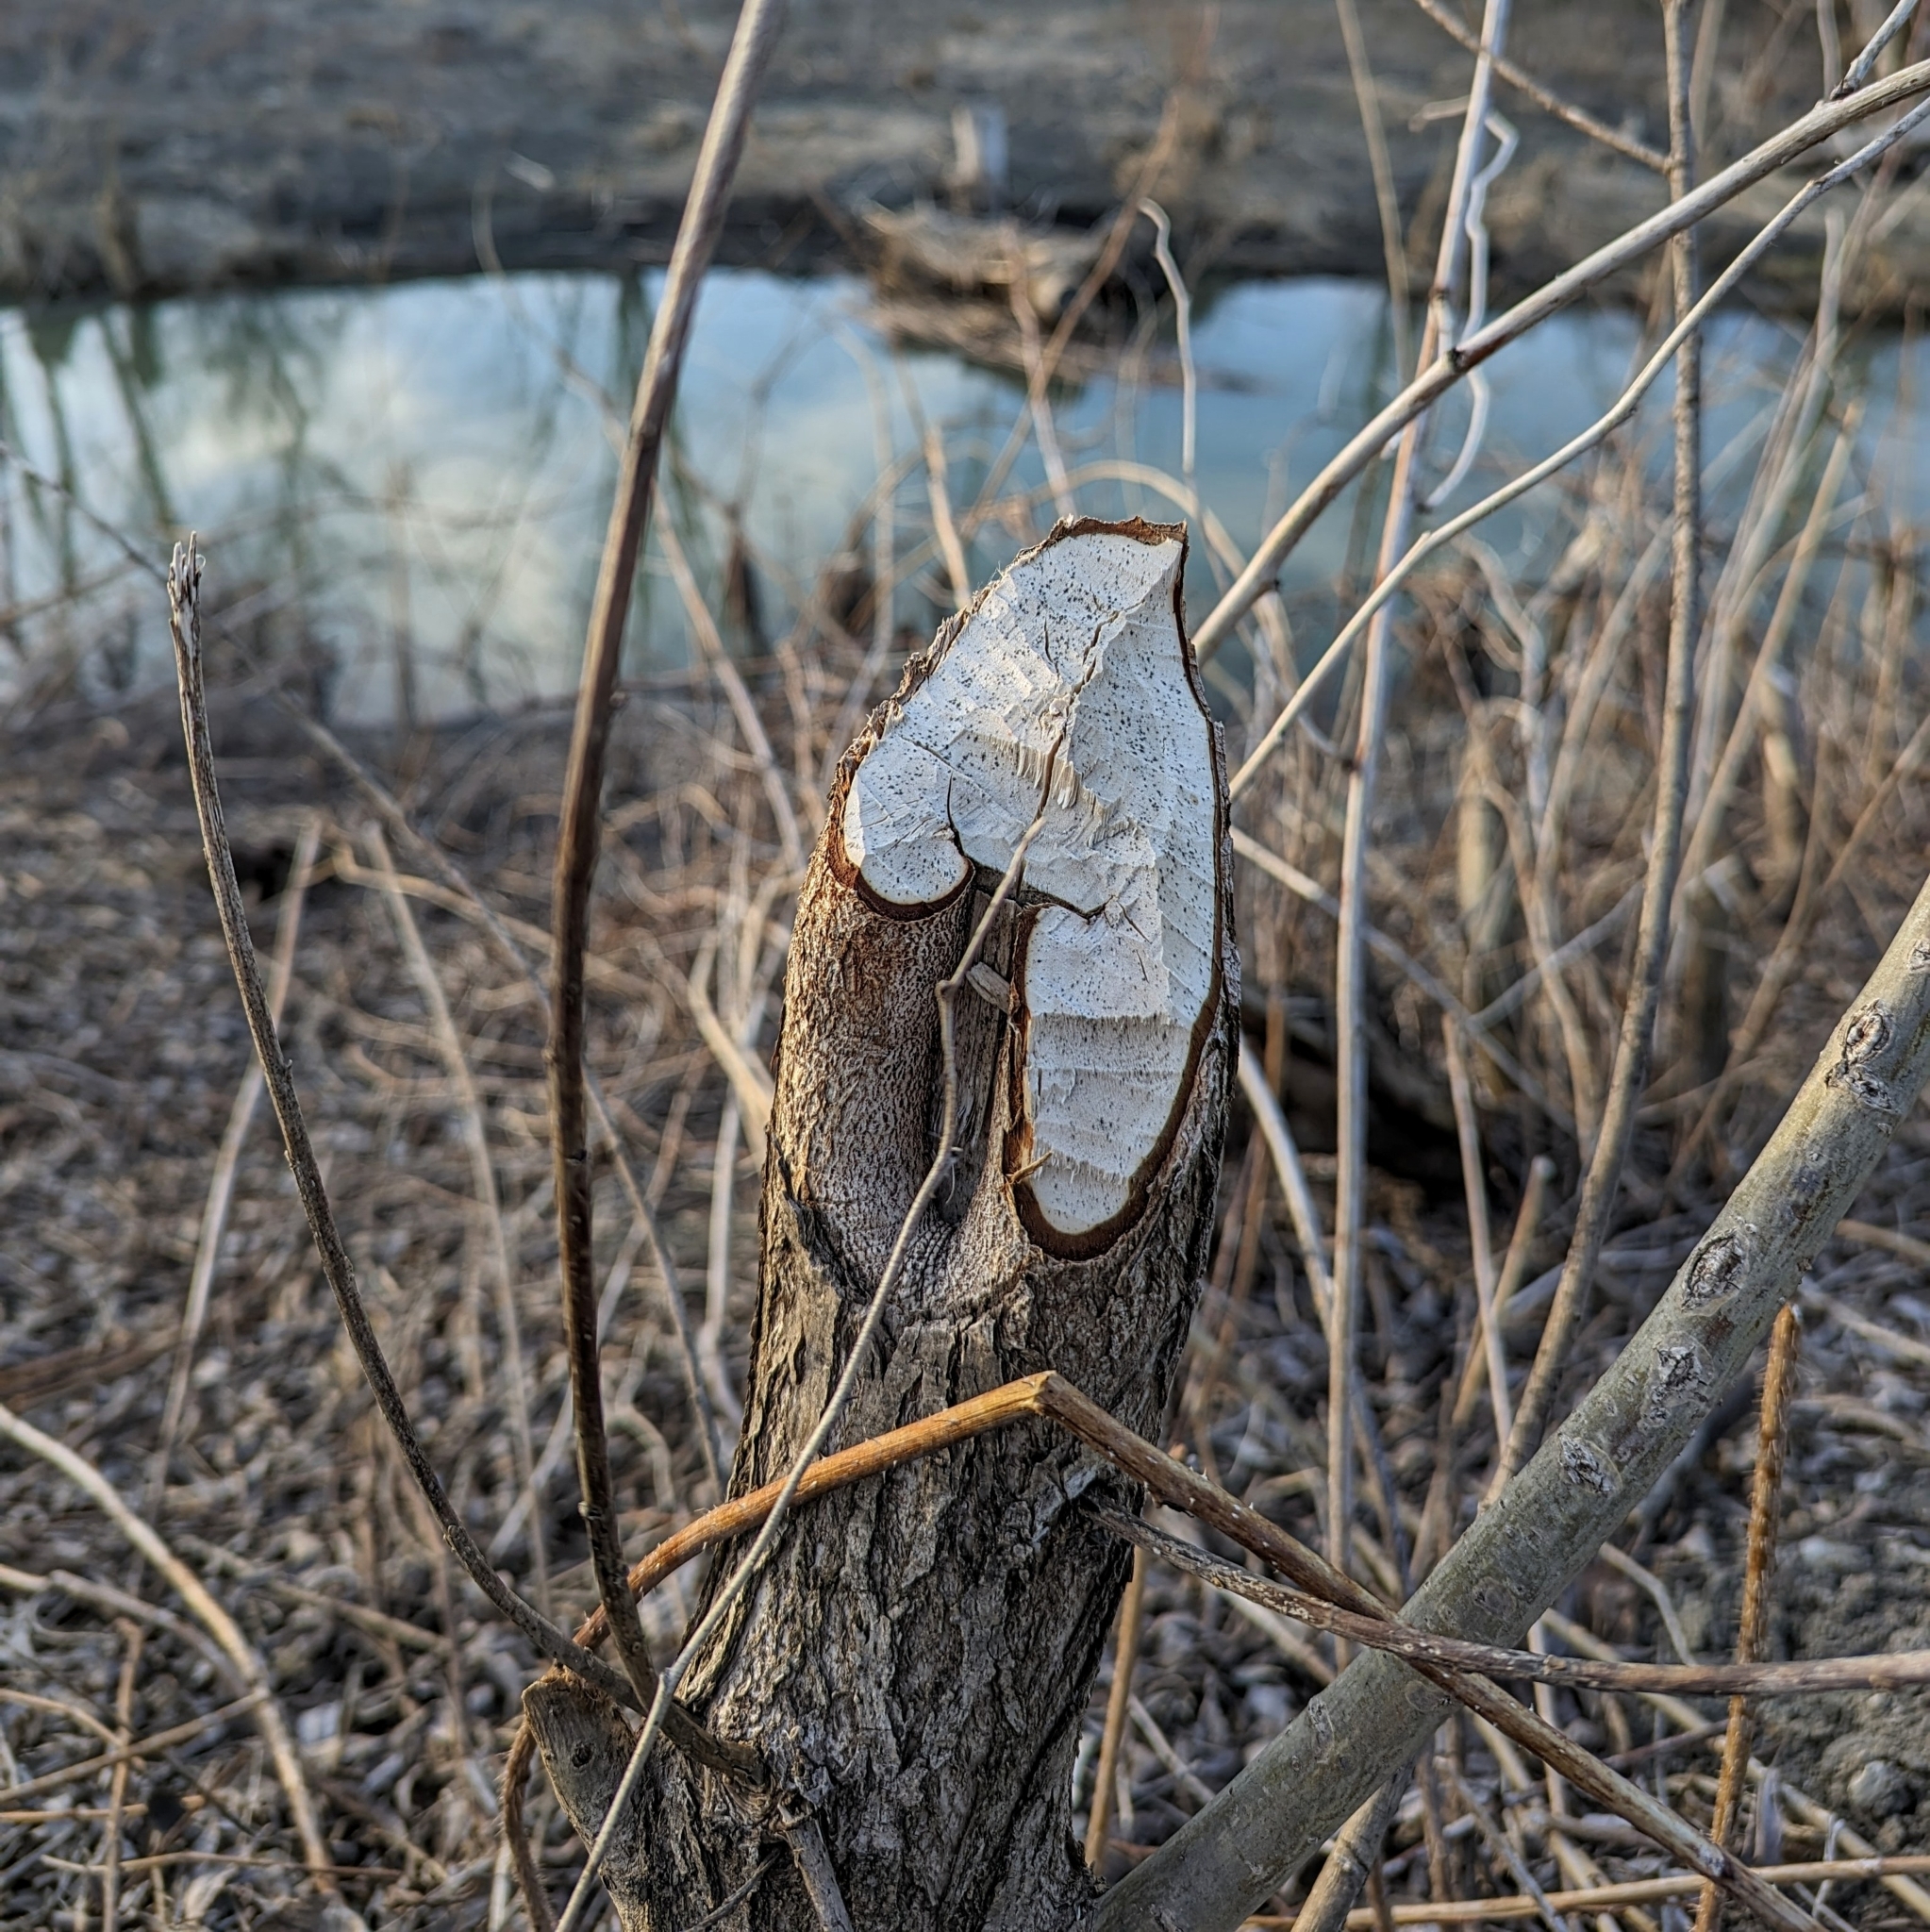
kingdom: Animalia
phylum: Chordata
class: Mammalia
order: Rodentia
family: Castoridae
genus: Castor
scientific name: Castor canadensis
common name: American beaver
